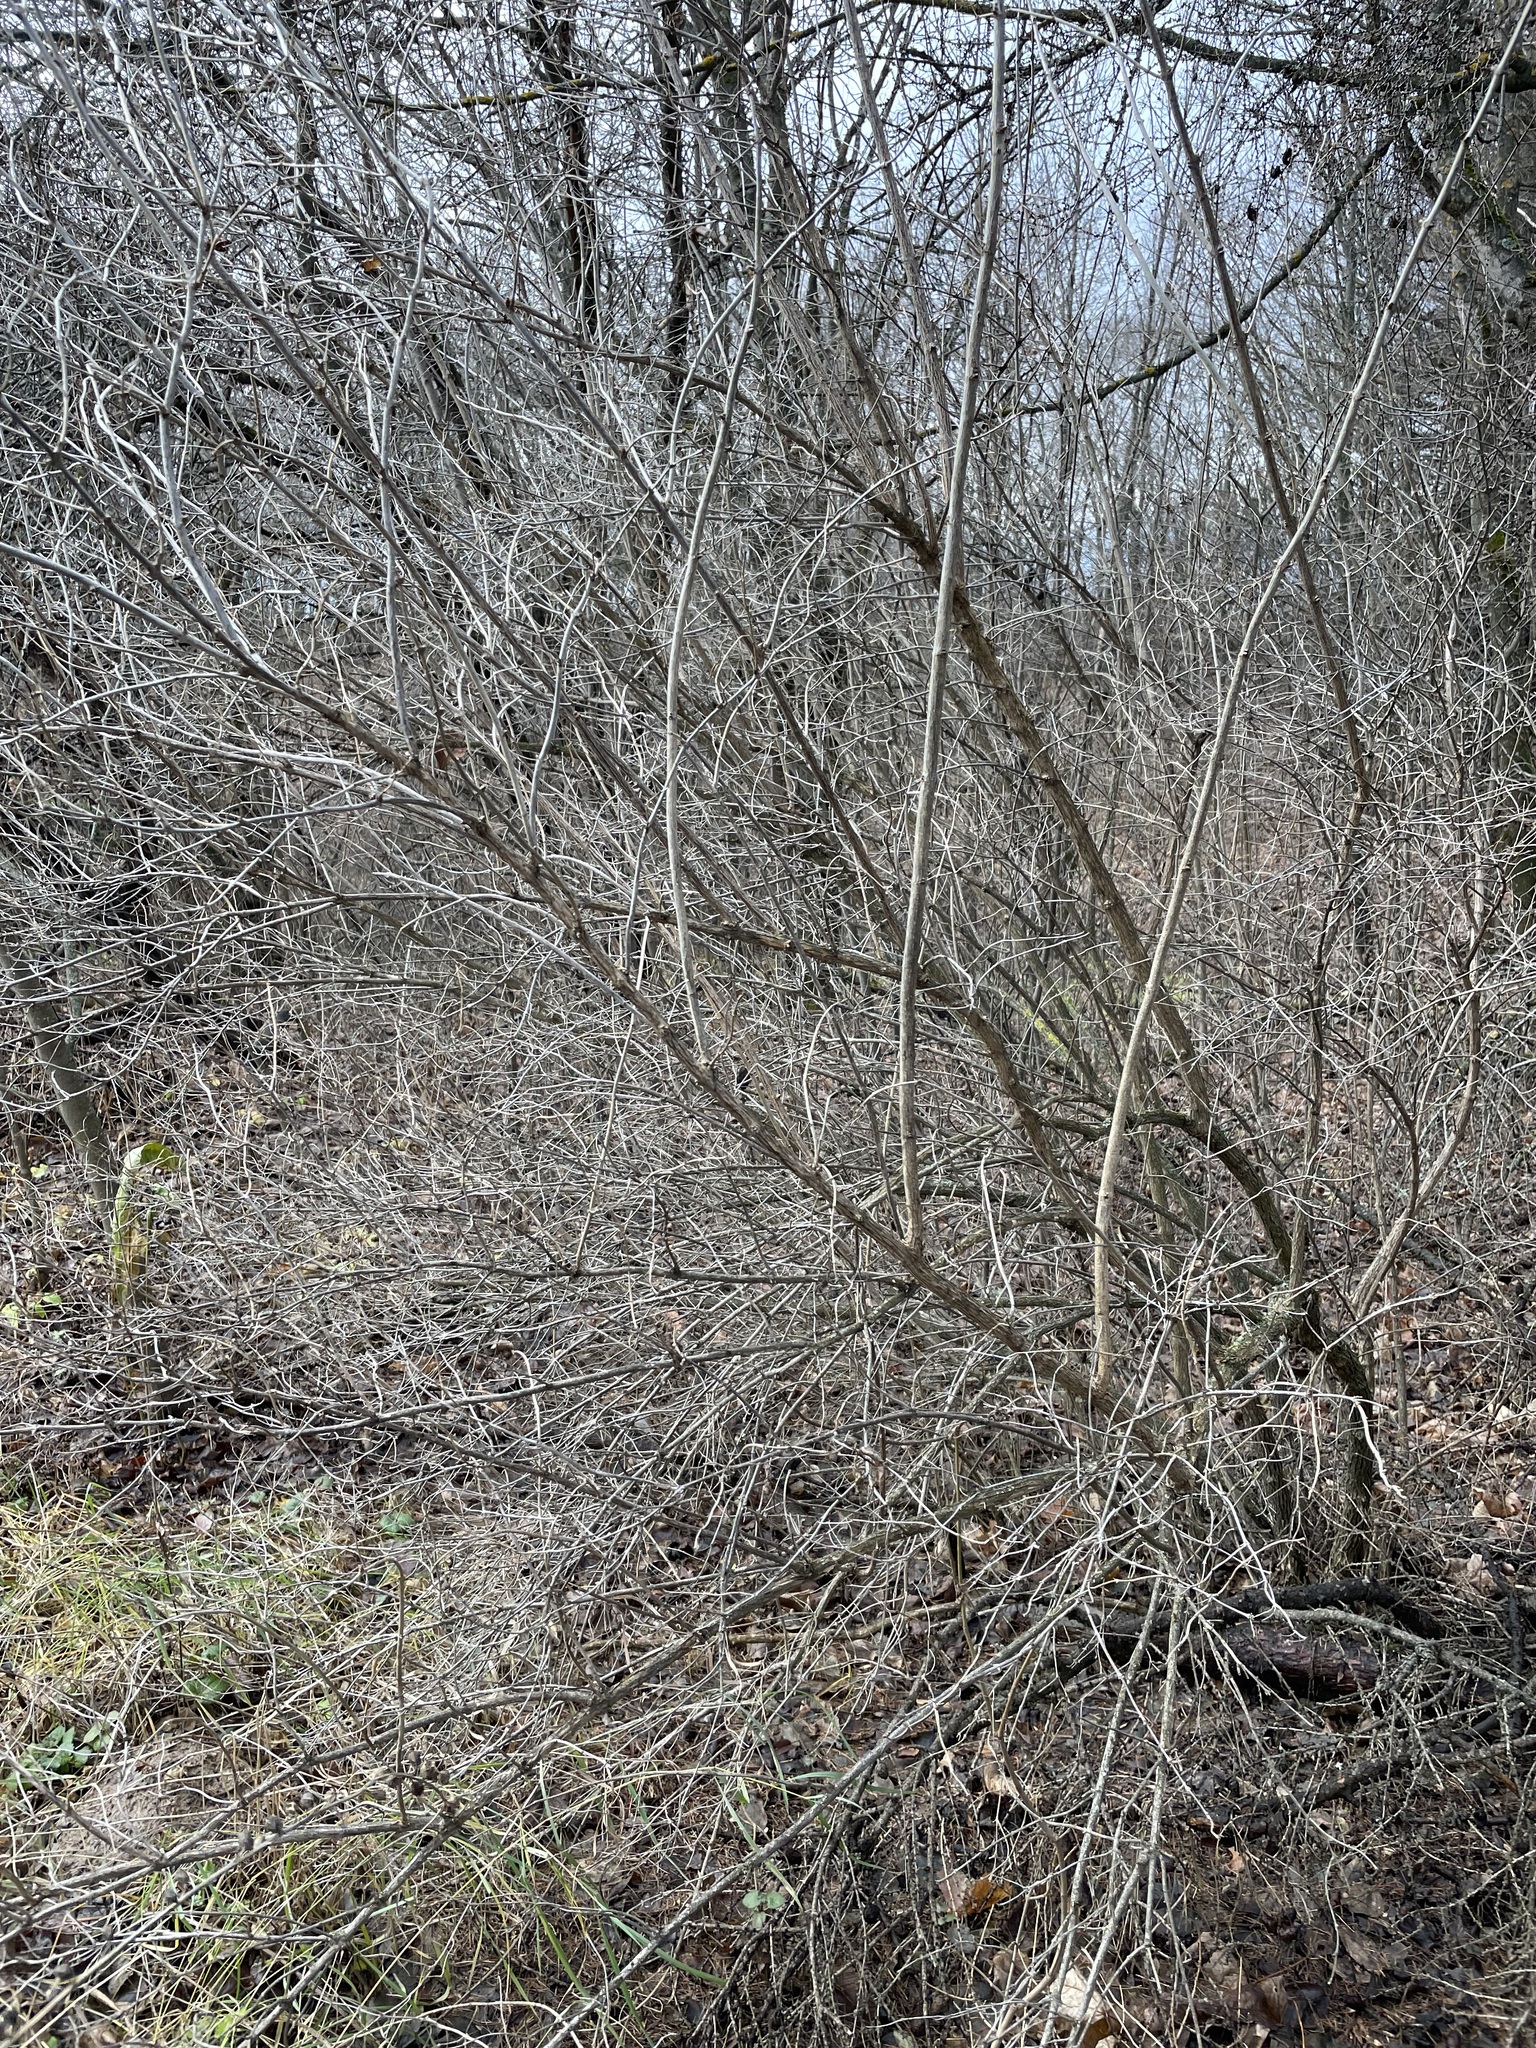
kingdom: Plantae
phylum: Tracheophyta
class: Magnoliopsida
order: Dipsacales
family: Caprifoliaceae
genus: Lonicera
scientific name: Lonicera tatarica
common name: Tatarian honeysuckle
